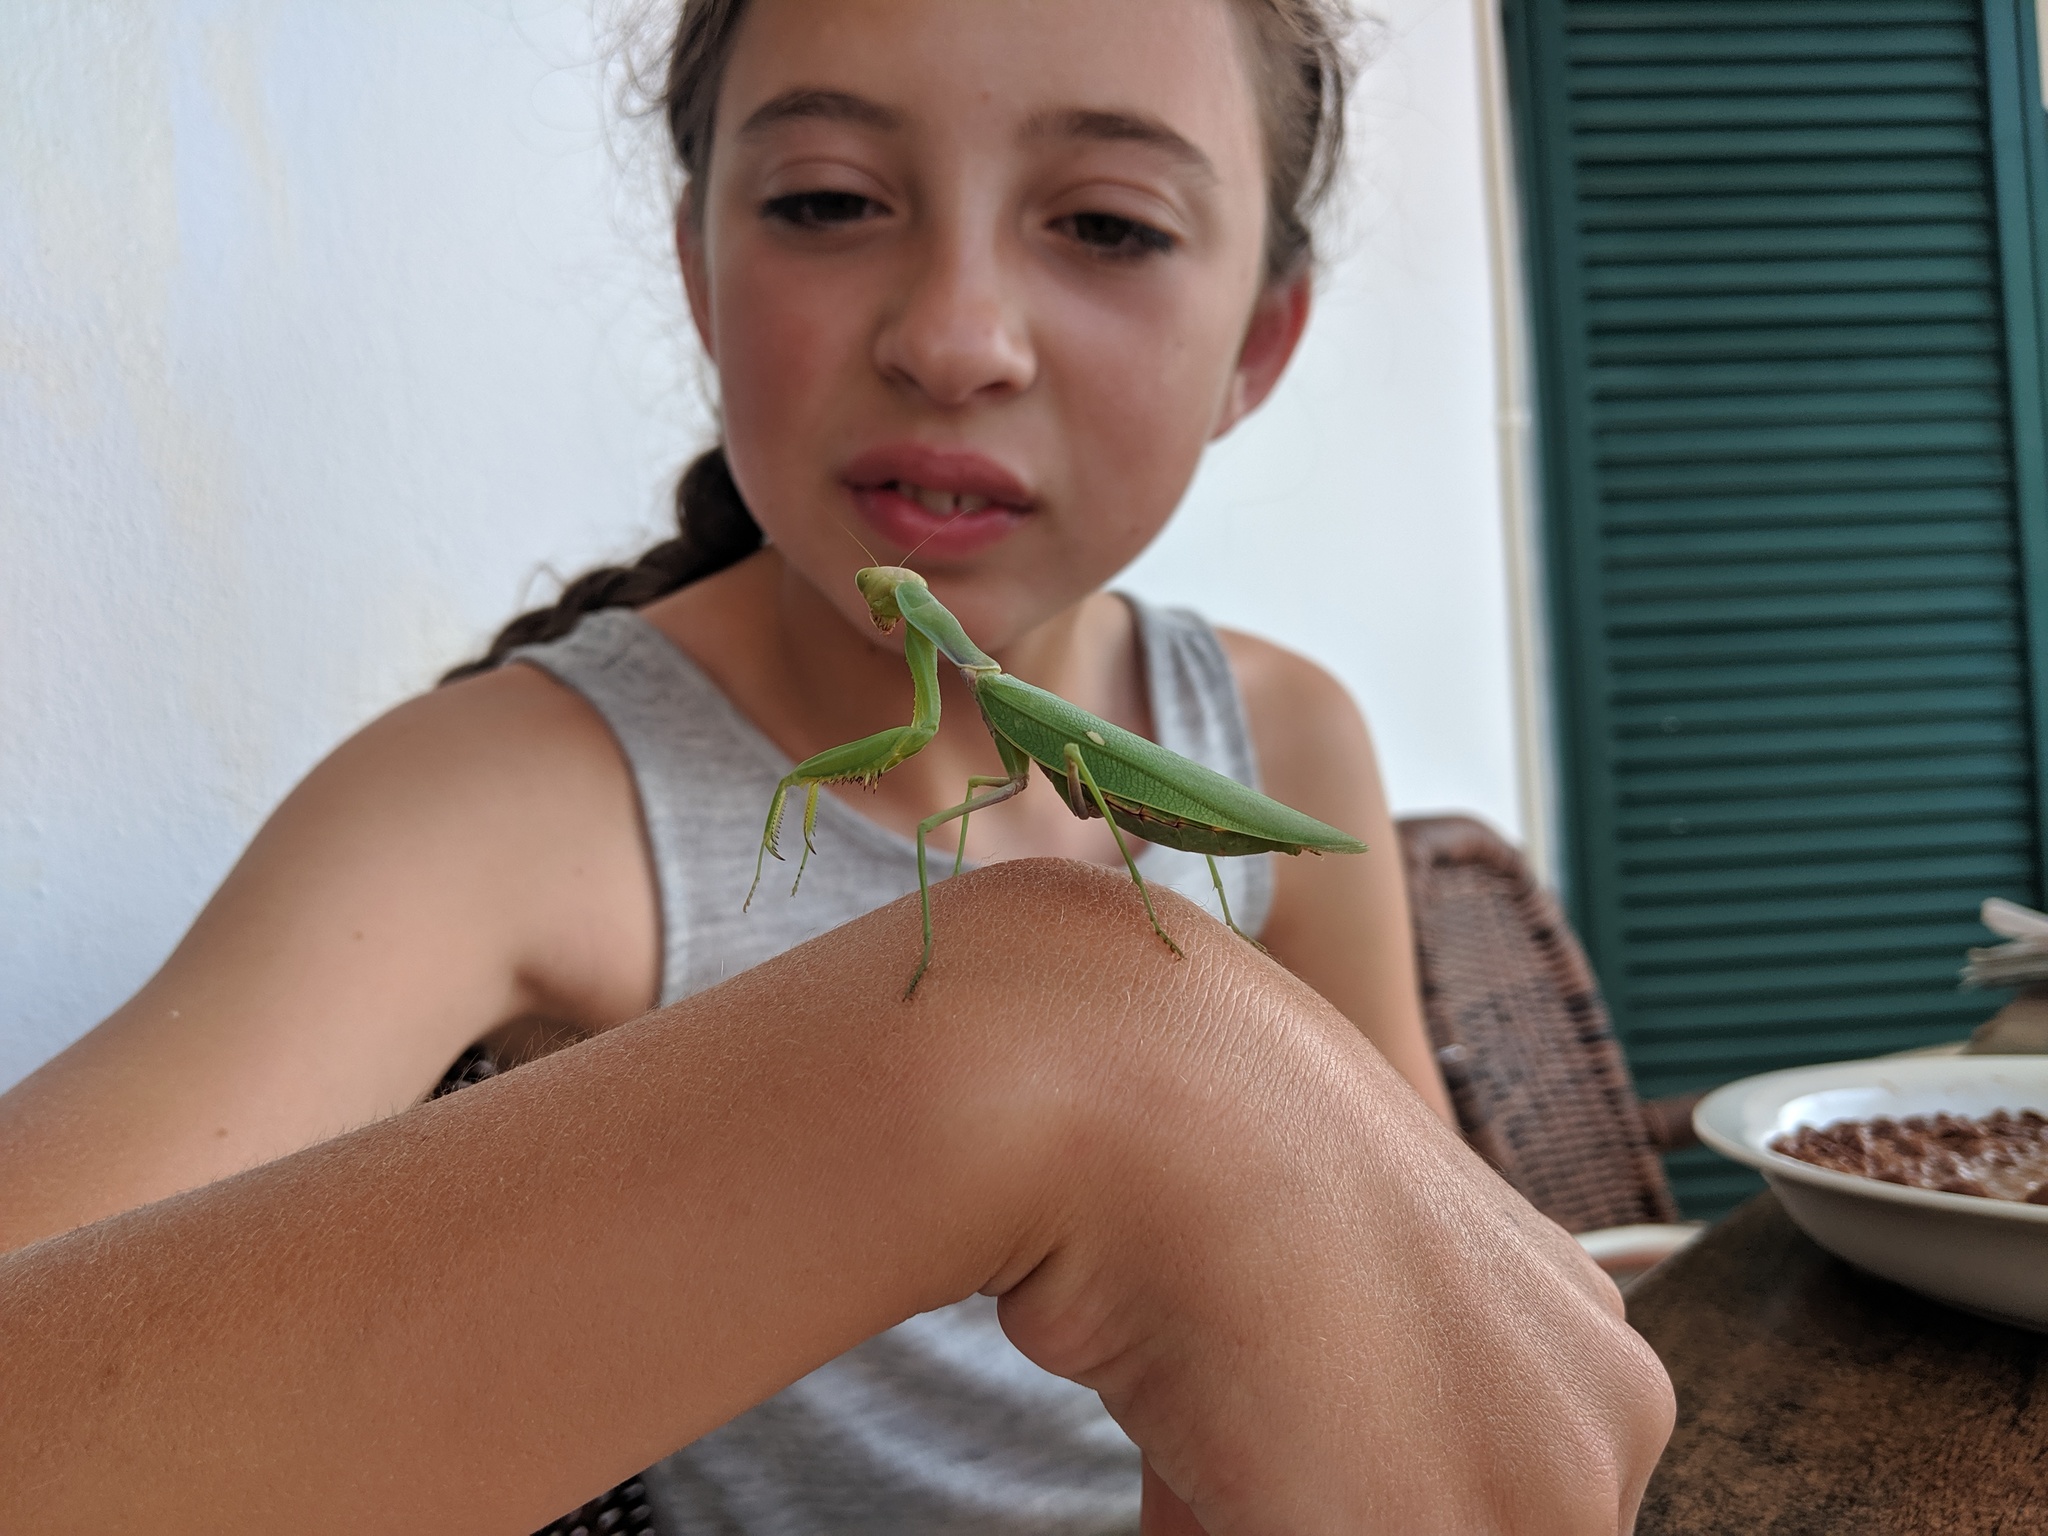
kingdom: Animalia
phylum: Arthropoda
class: Insecta
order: Mantodea
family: Mantidae
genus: Hierodula
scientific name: Hierodula transcaucasica
